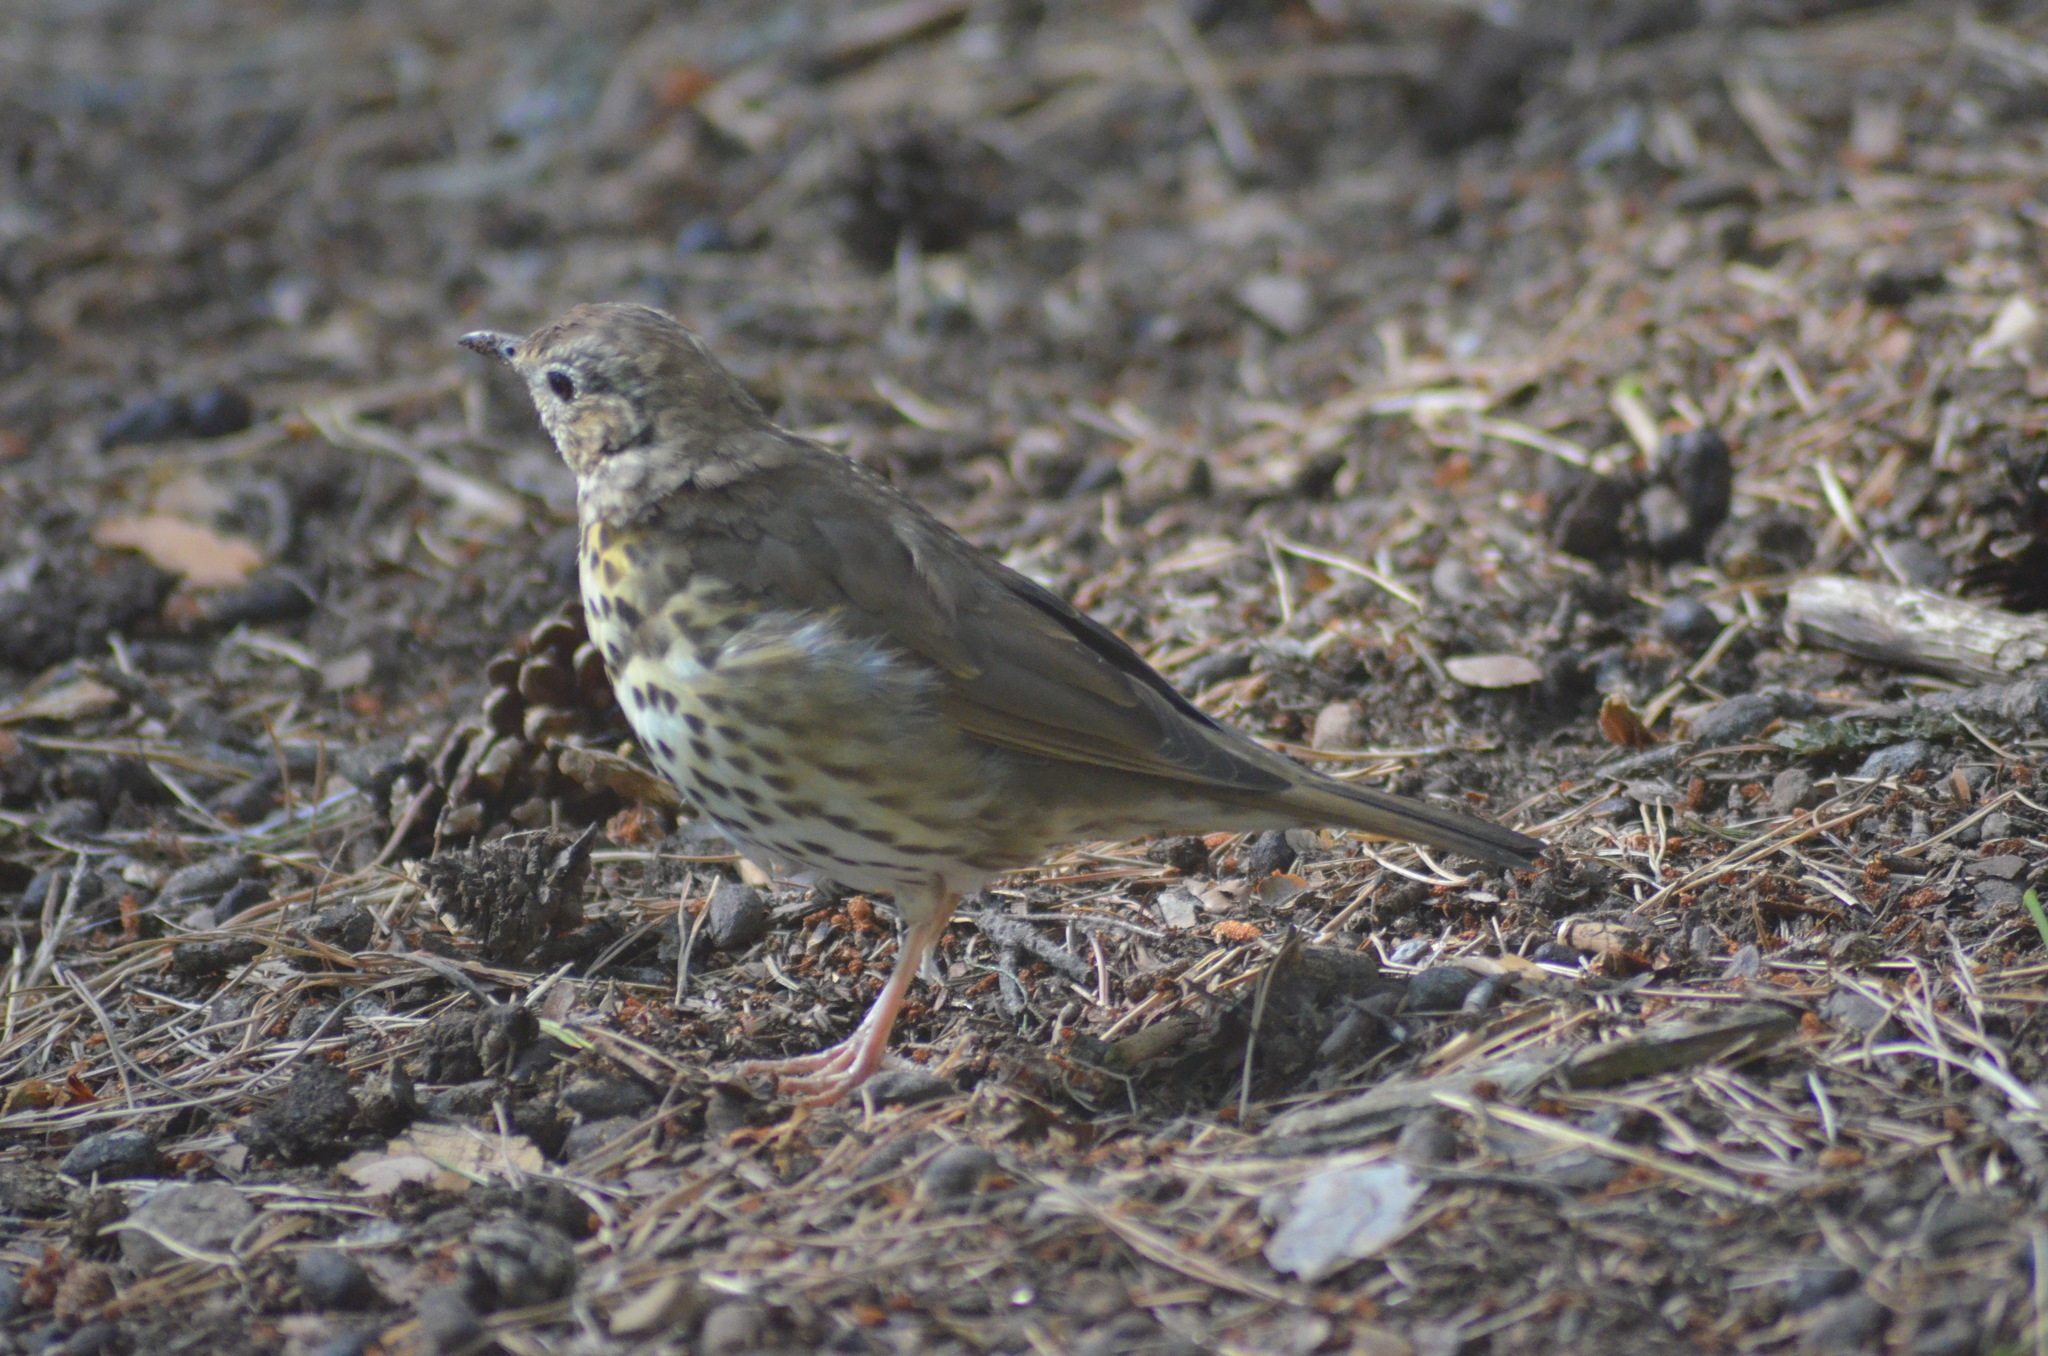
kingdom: Animalia
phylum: Chordata
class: Aves
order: Passeriformes
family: Turdidae
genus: Turdus
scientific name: Turdus philomelos
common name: Song thrush
